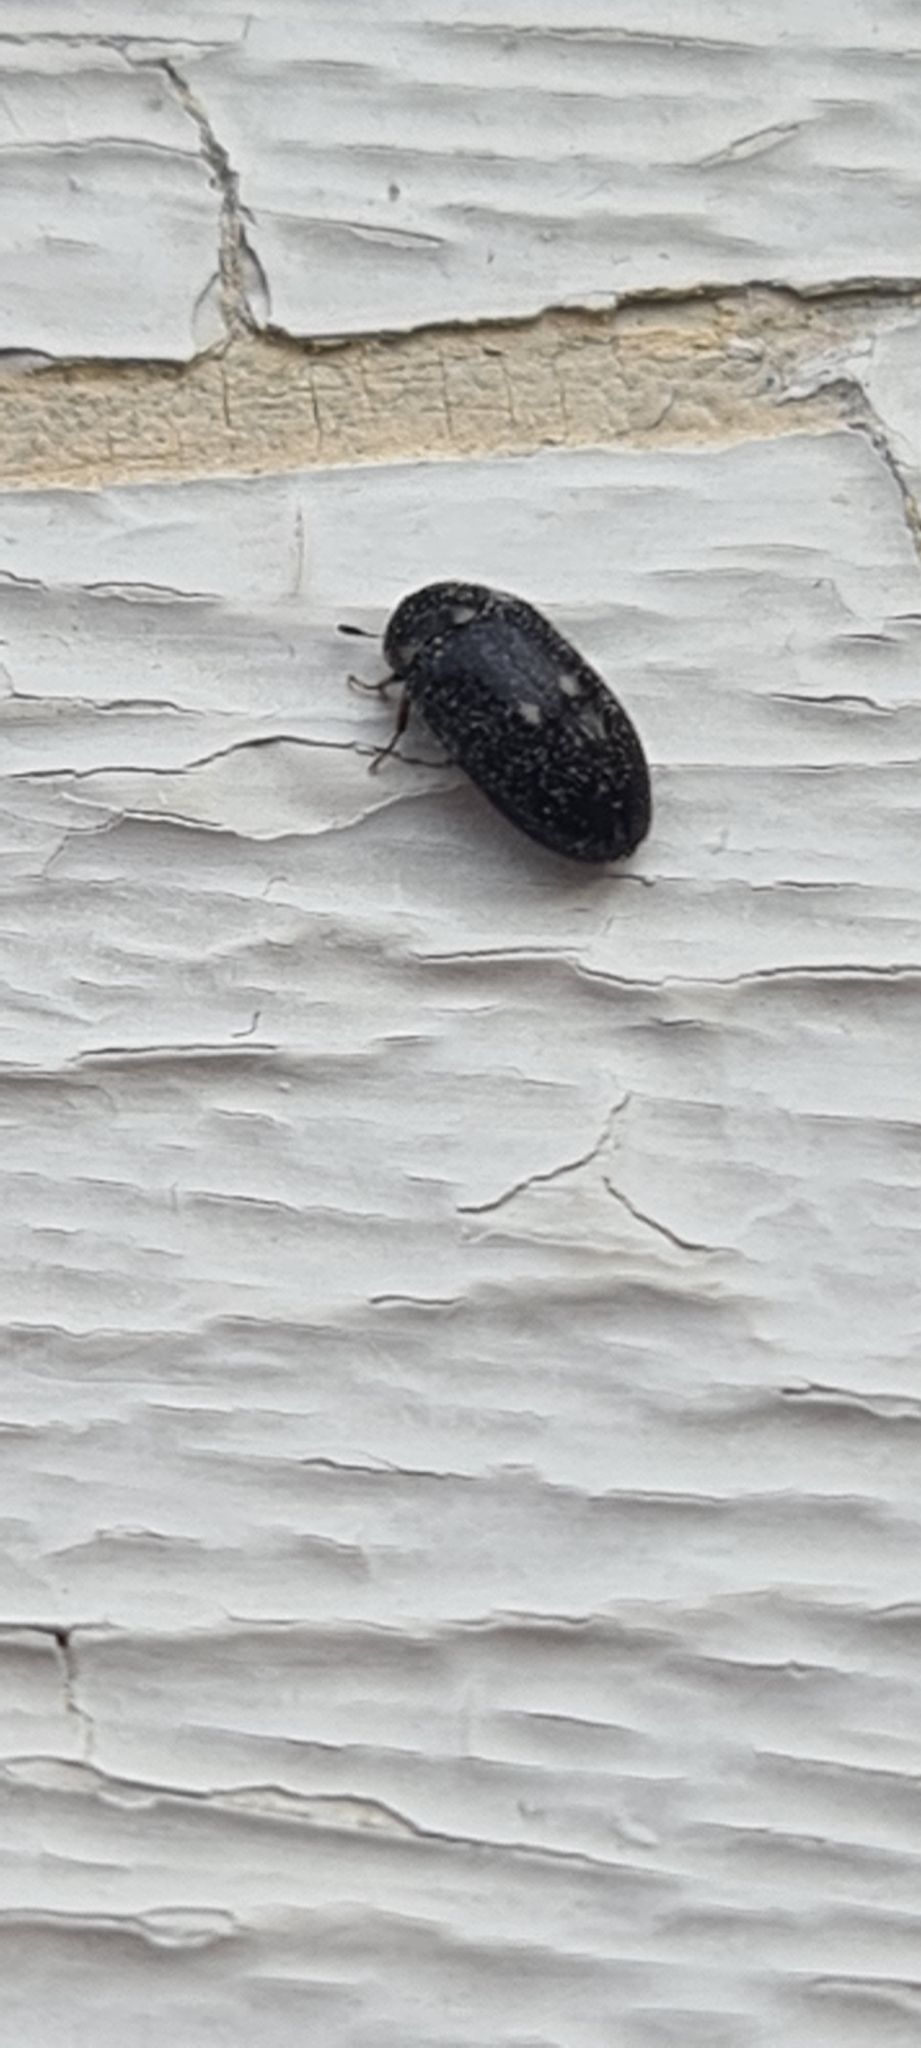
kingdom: Animalia
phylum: Arthropoda
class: Insecta
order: Coleoptera
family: Dermestidae
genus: Attagenus
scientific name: Attagenus pellio
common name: Two-spotted carpet beetle
